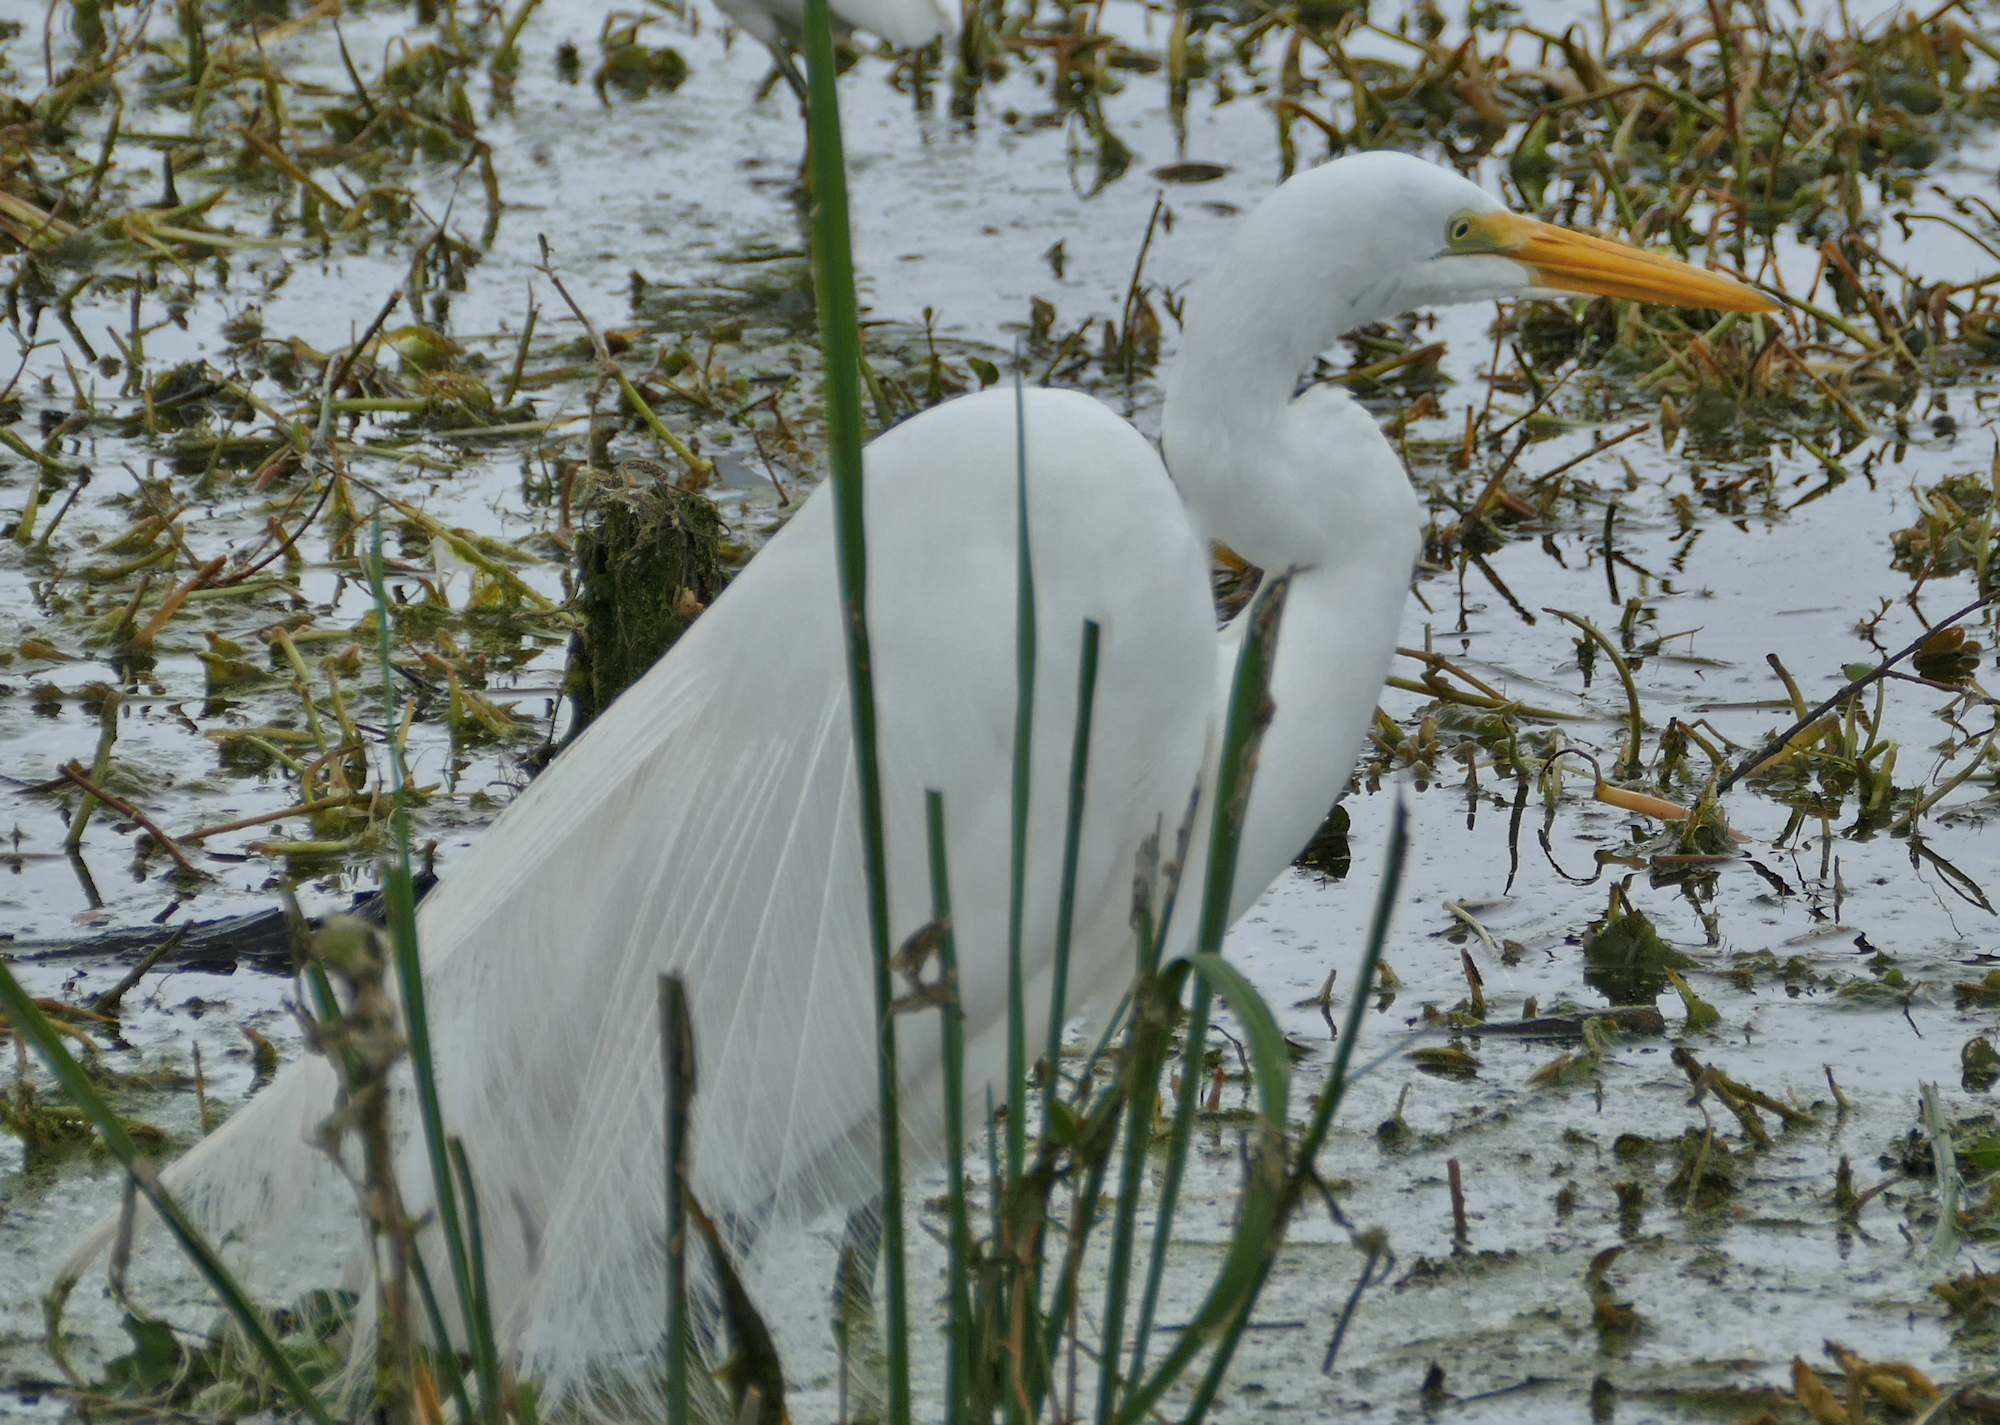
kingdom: Animalia
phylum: Chordata
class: Aves
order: Pelecaniformes
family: Ardeidae
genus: Ardea
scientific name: Ardea alba
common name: Great egret
